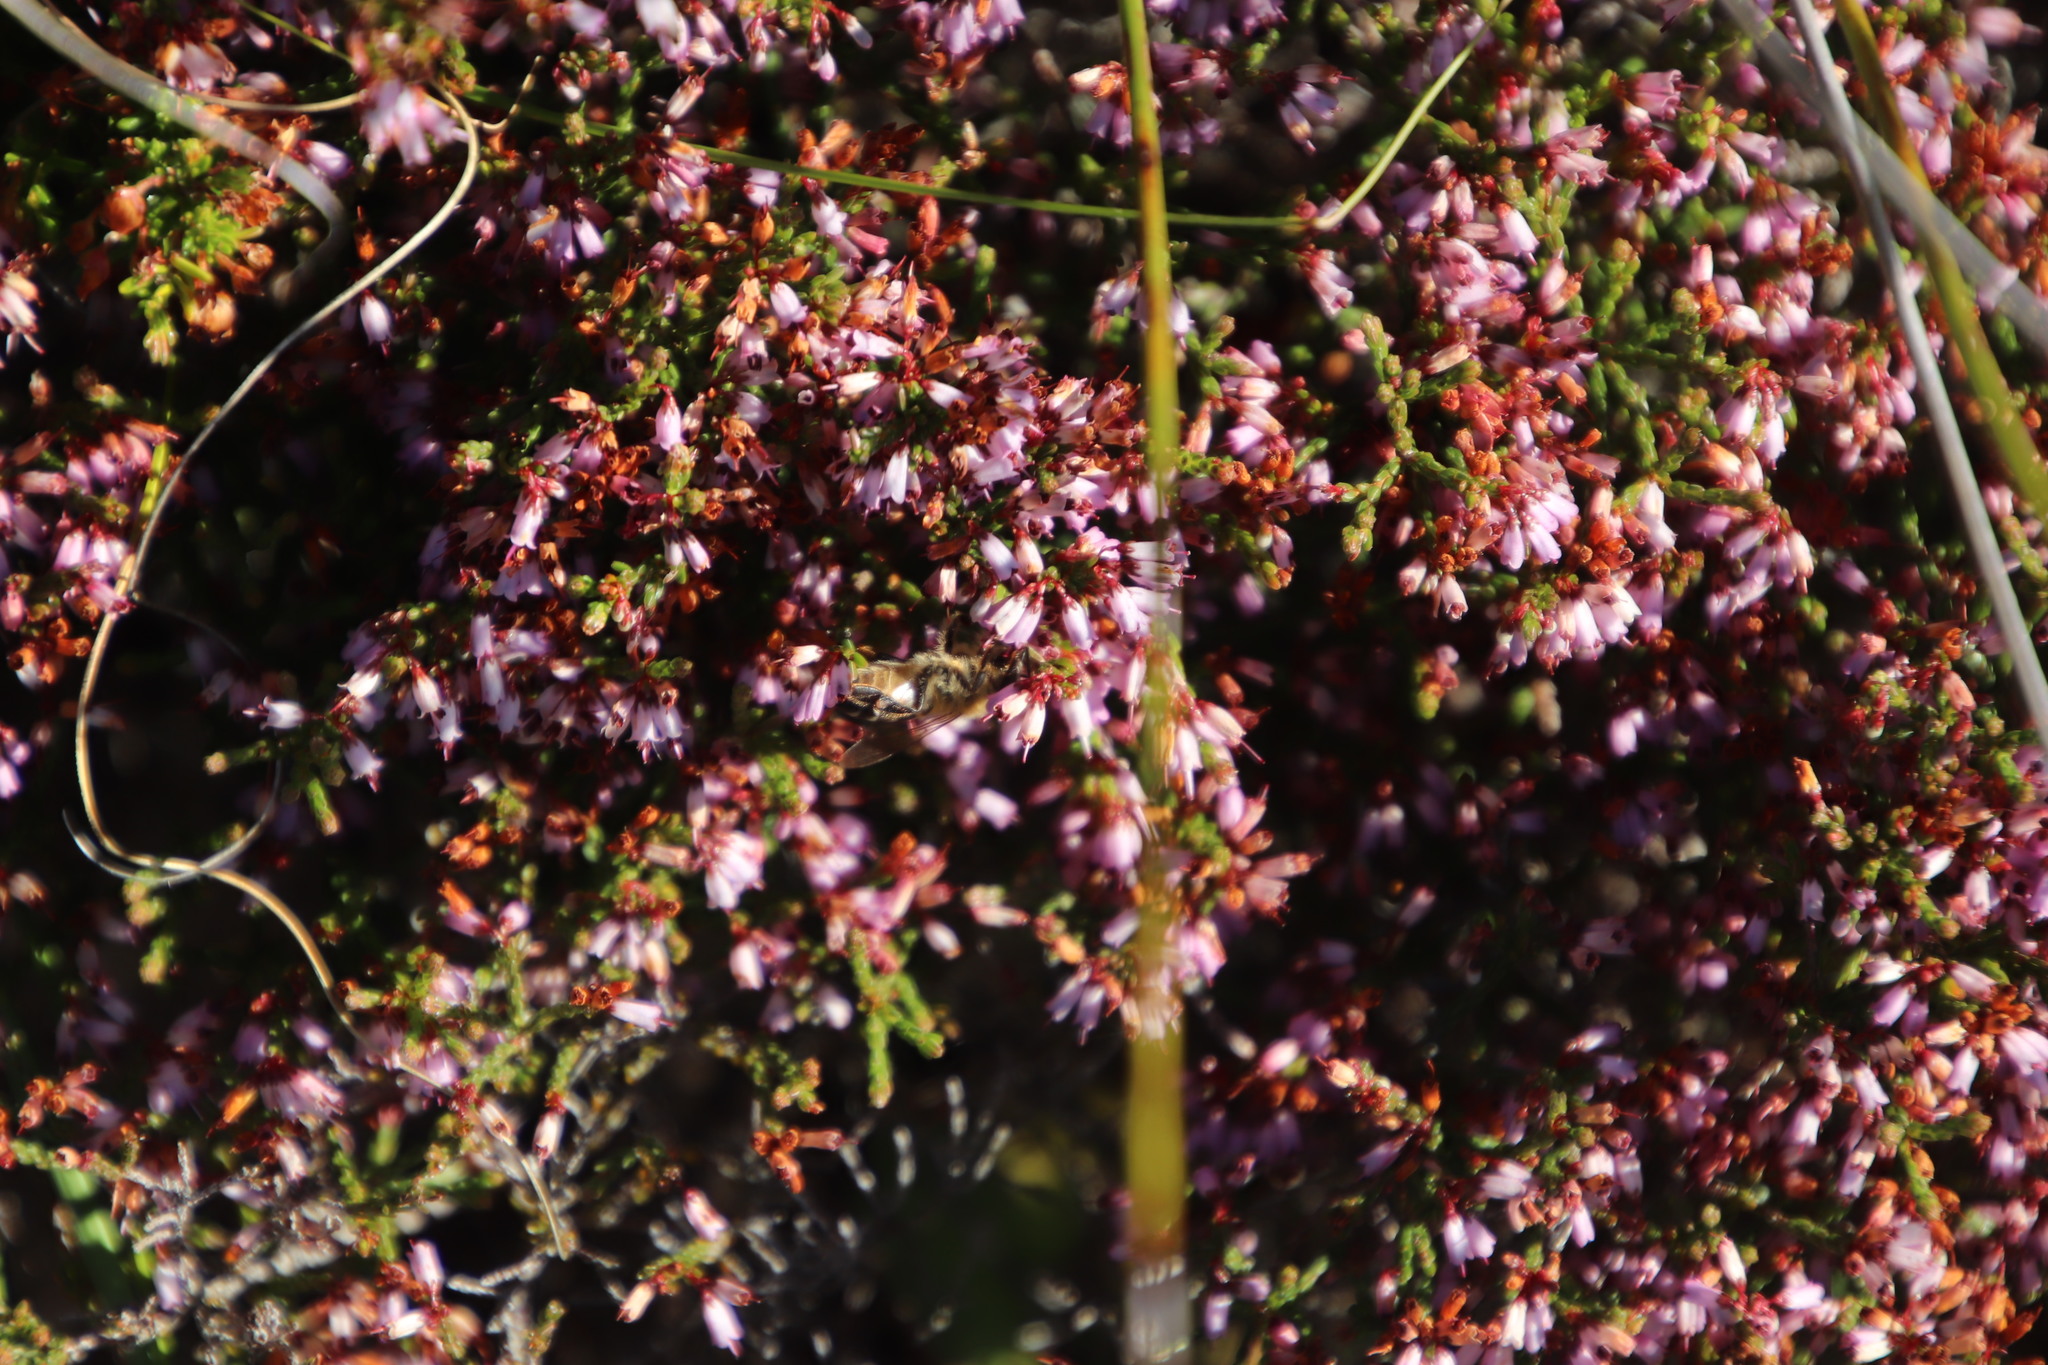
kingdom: Plantae
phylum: Tracheophyta
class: Magnoliopsida
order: Ericales
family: Ericaceae
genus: Erica
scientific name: Erica equisetifolia
